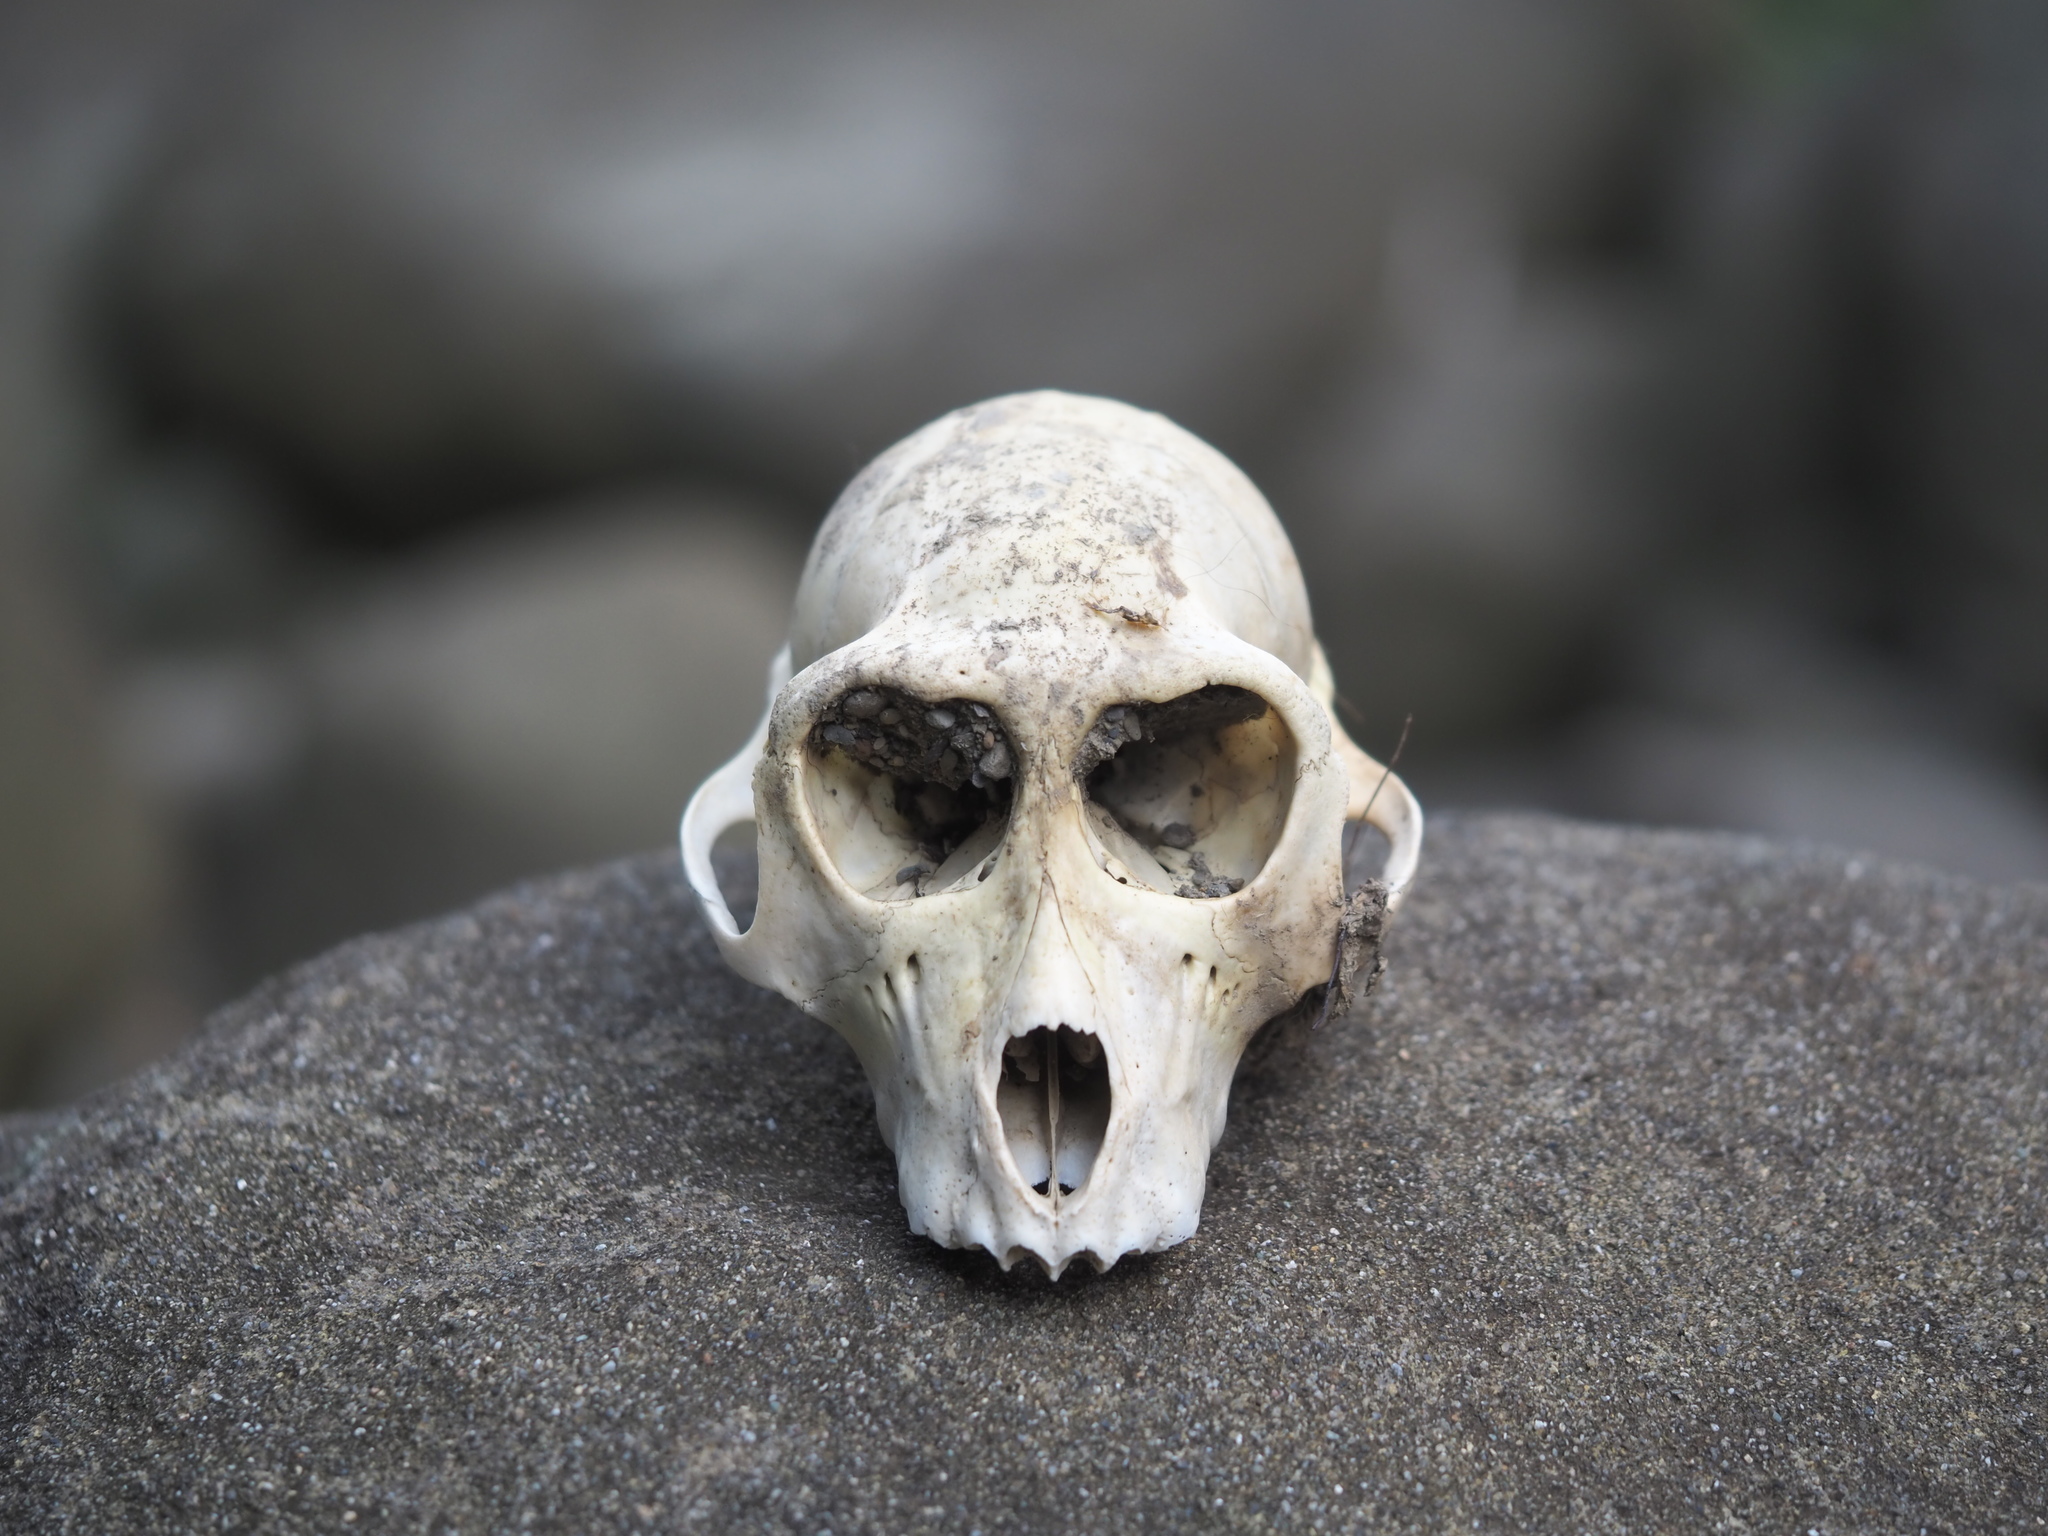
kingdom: Animalia
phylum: Chordata
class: Mammalia
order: Primates
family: Cercopithecidae
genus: Macaca
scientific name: Macaca cyclopis
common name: Formosan rock macaque
